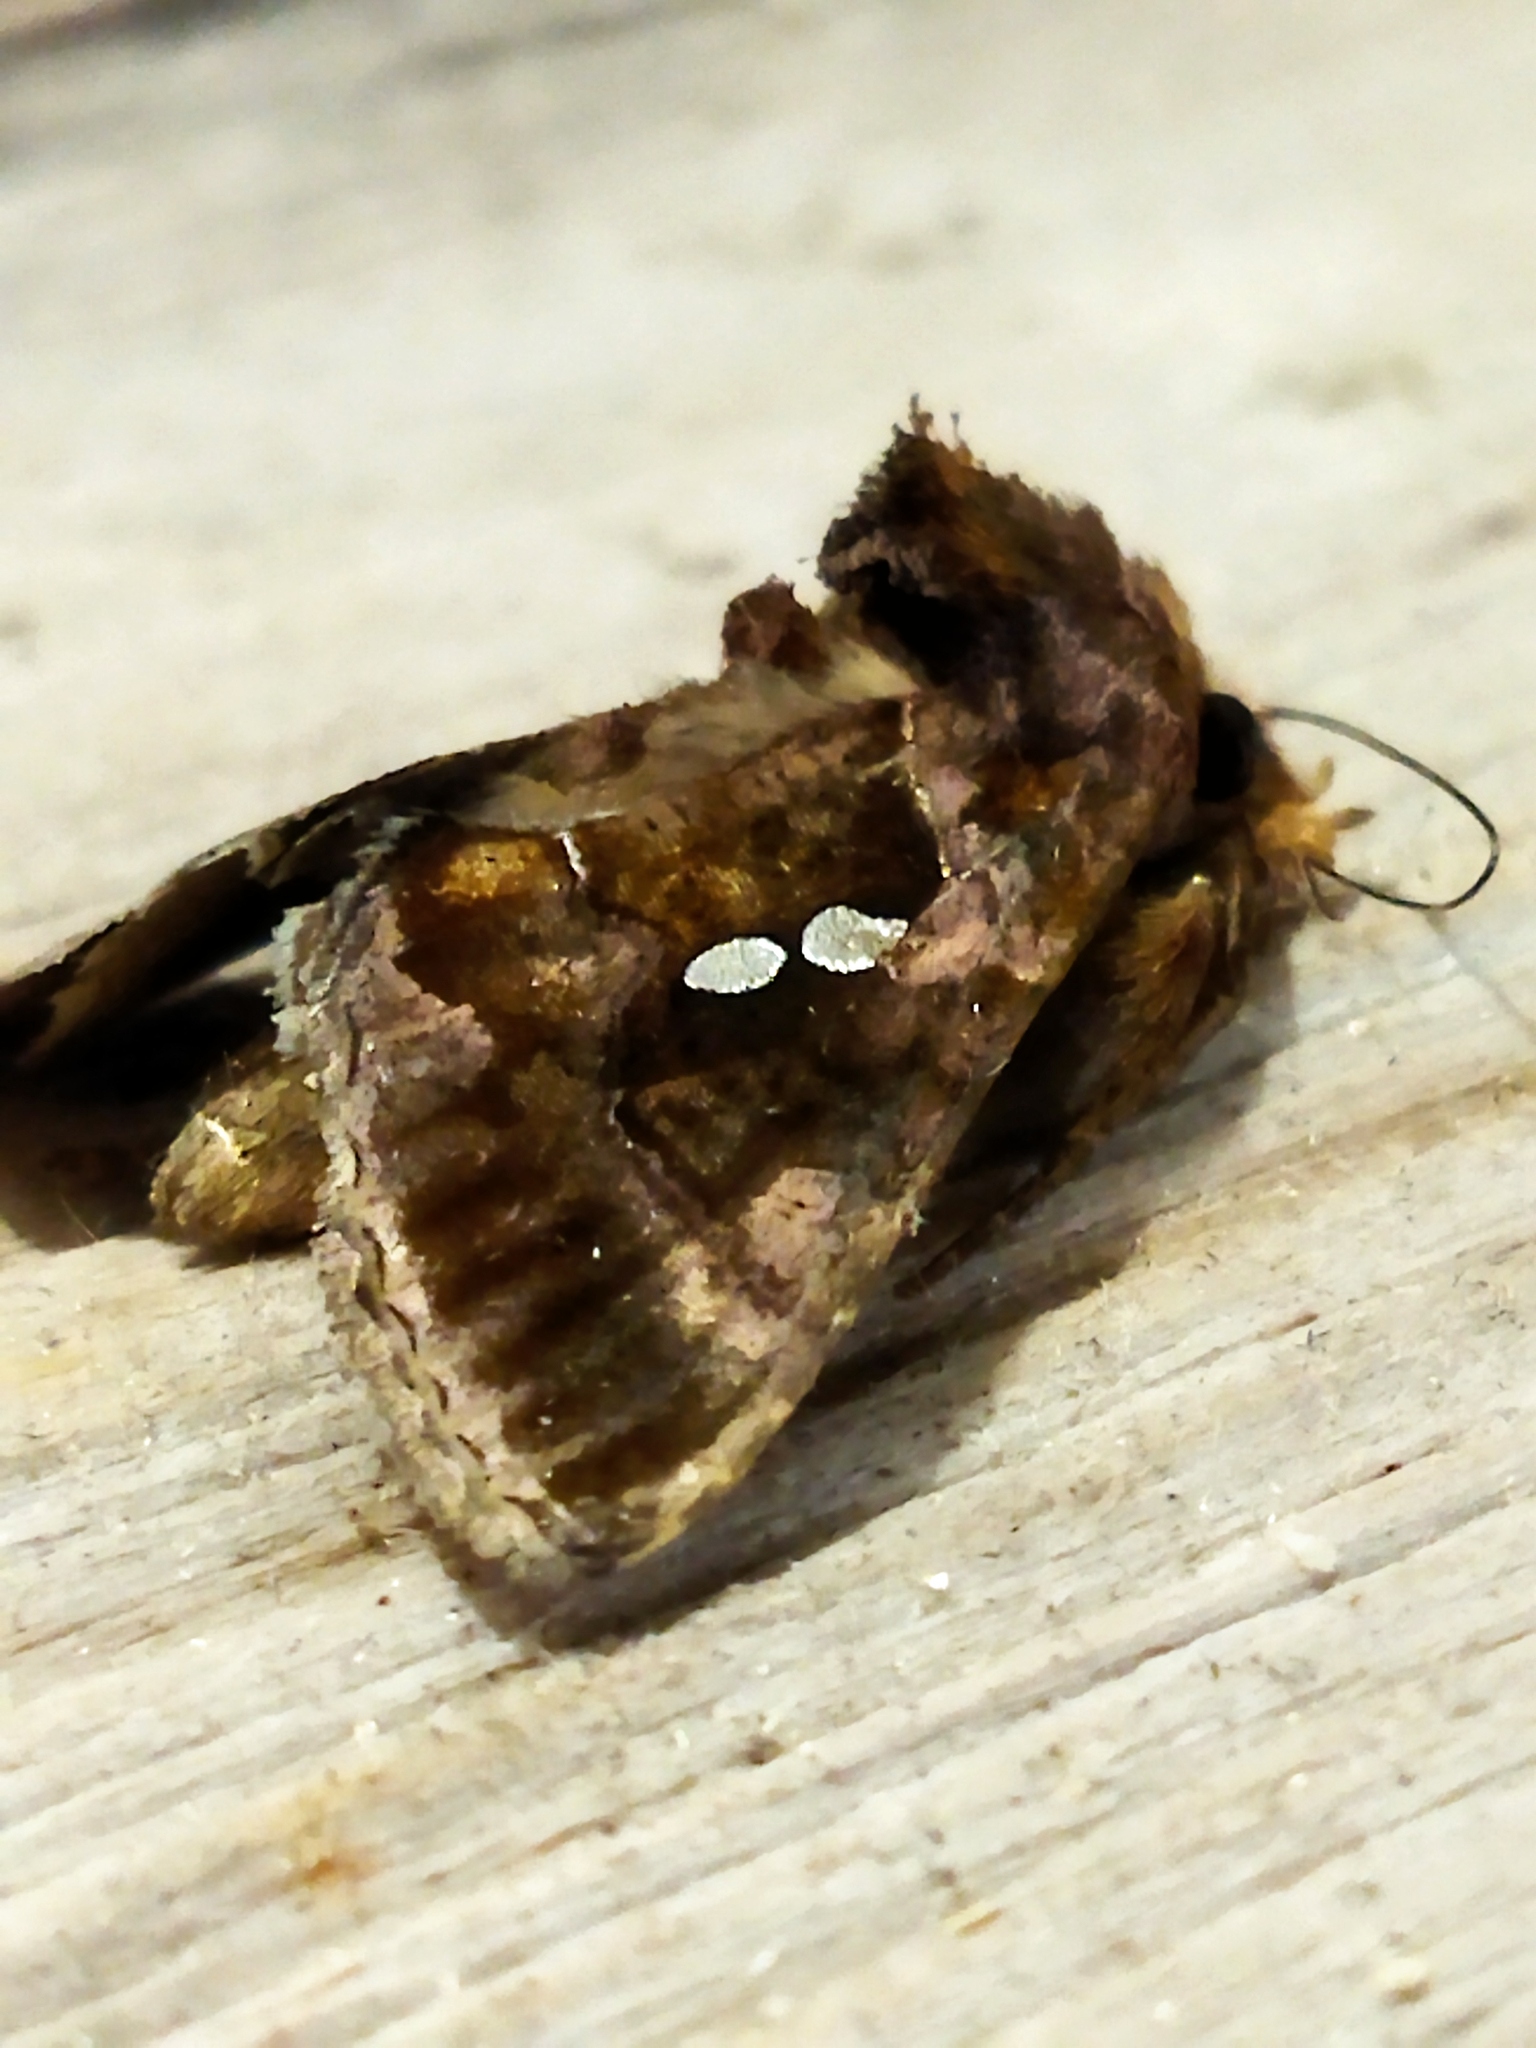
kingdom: Animalia
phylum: Arthropoda
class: Insecta
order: Lepidoptera
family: Noctuidae
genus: Chrysodeixis
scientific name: Chrysodeixis chalcites
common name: Golden twin-spot
